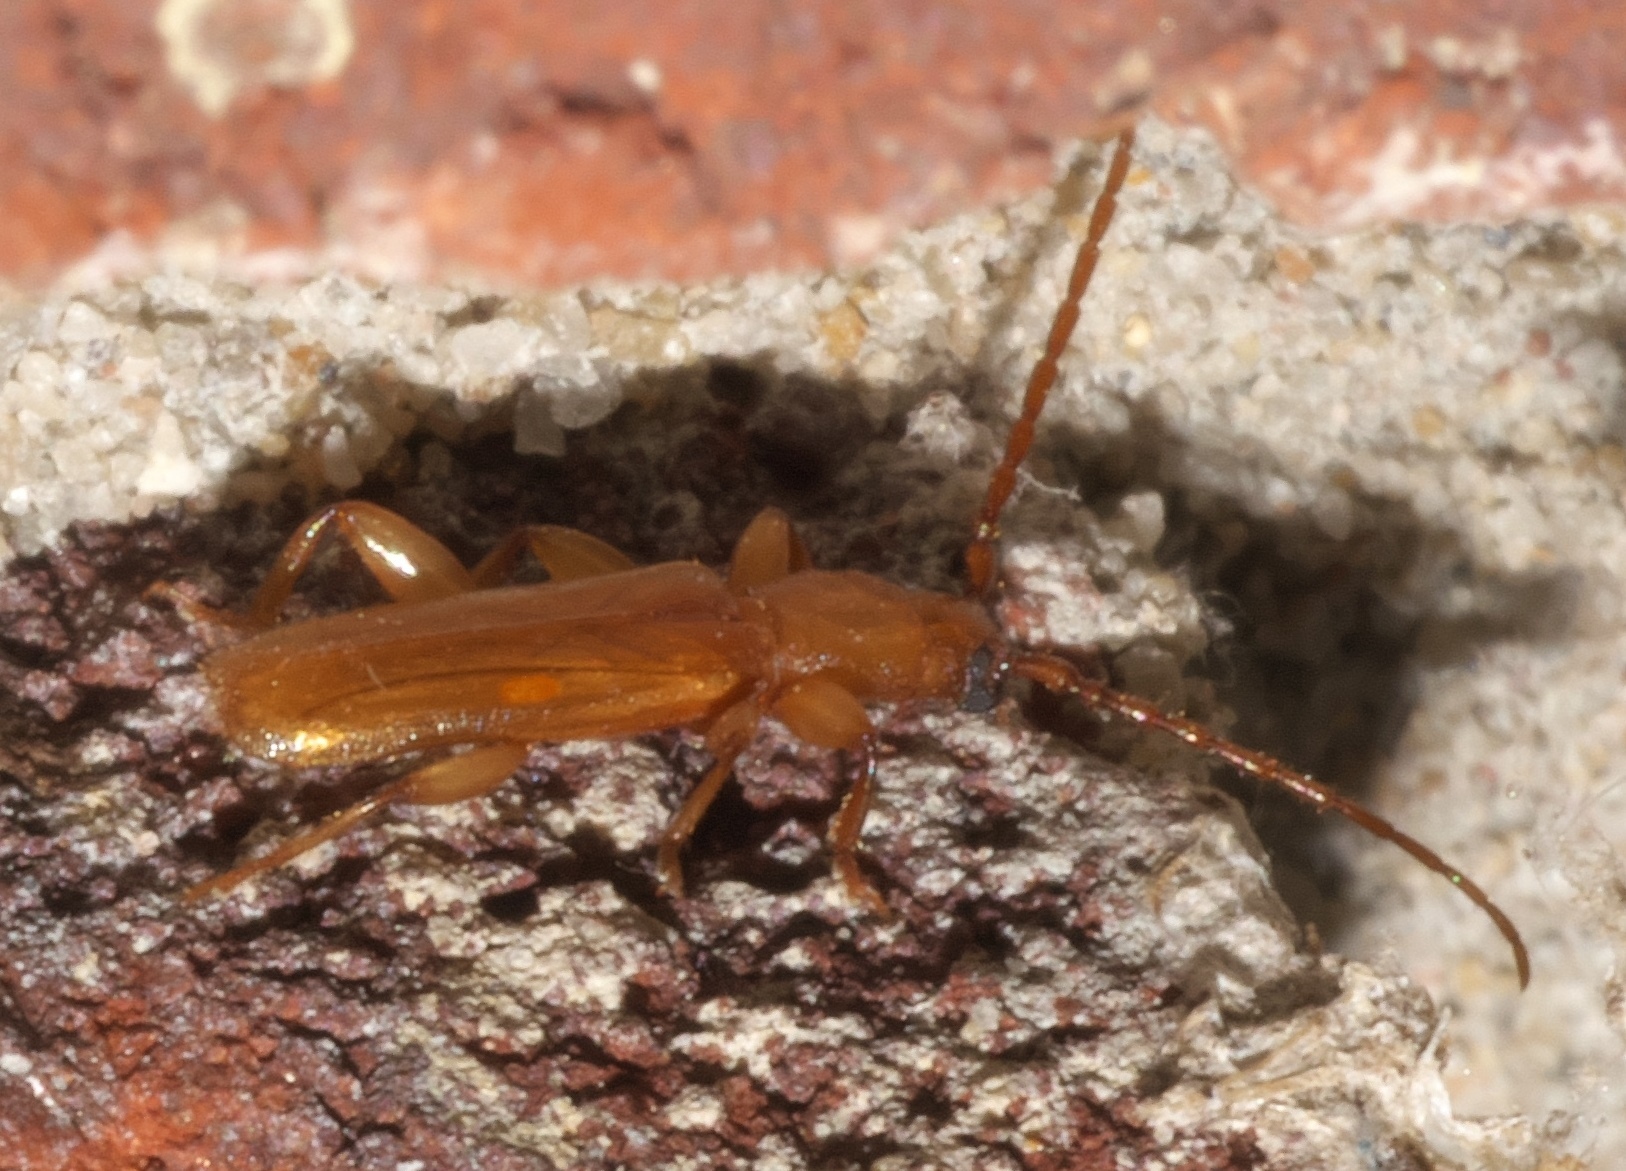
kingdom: Animalia
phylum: Arthropoda
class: Insecta
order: Coleoptera
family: Cerambycidae
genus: Smodicum
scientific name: Smodicum cucujiforme
